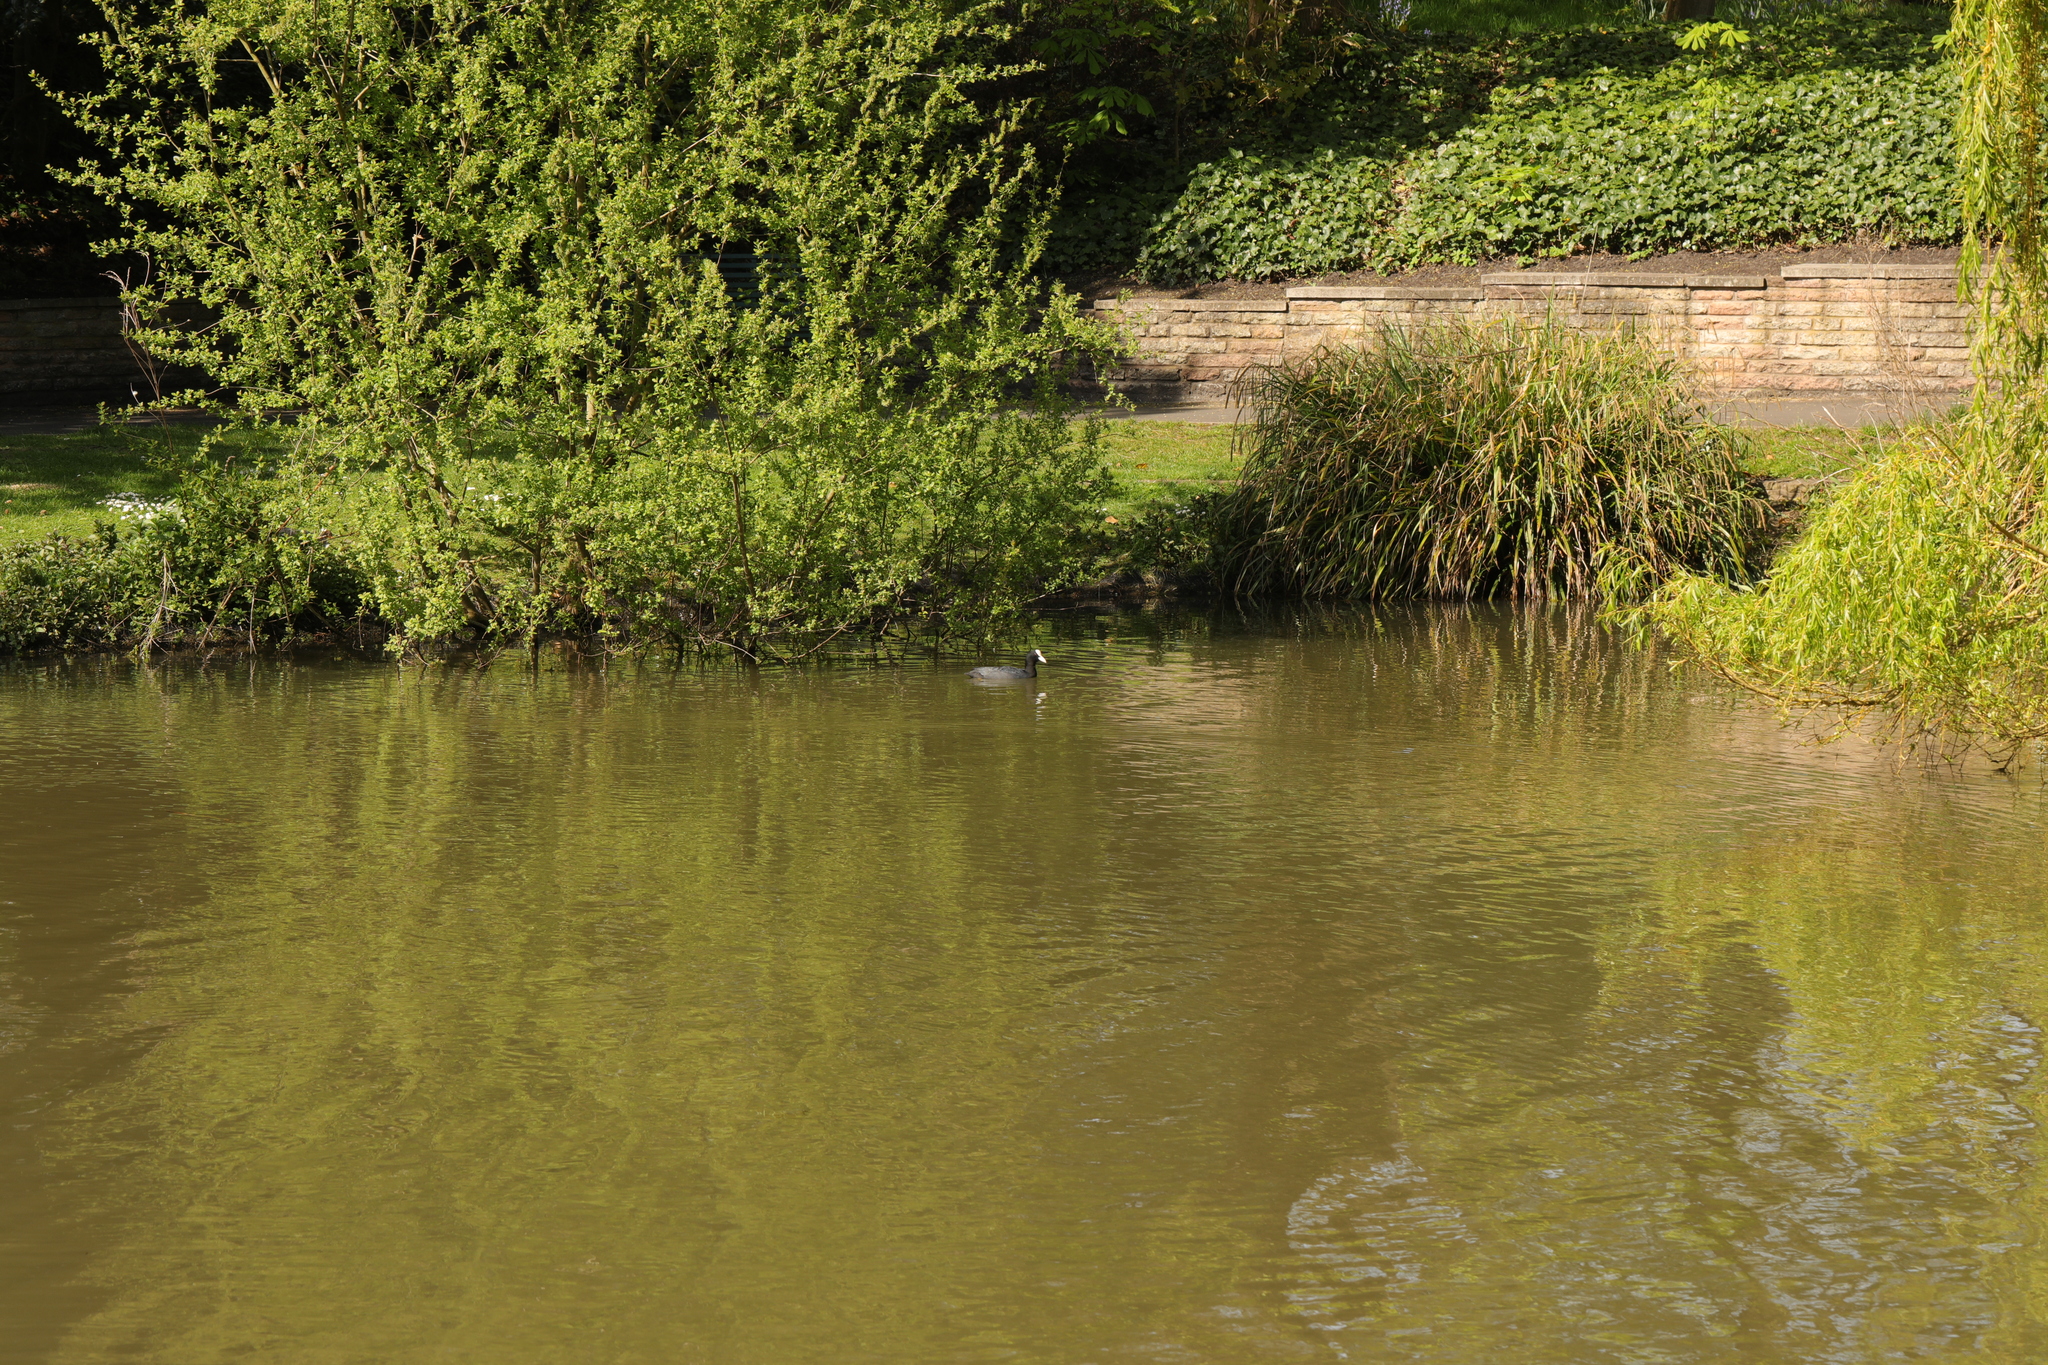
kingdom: Animalia
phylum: Chordata
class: Aves
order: Gruiformes
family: Rallidae
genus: Fulica
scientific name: Fulica atra
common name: Eurasian coot
